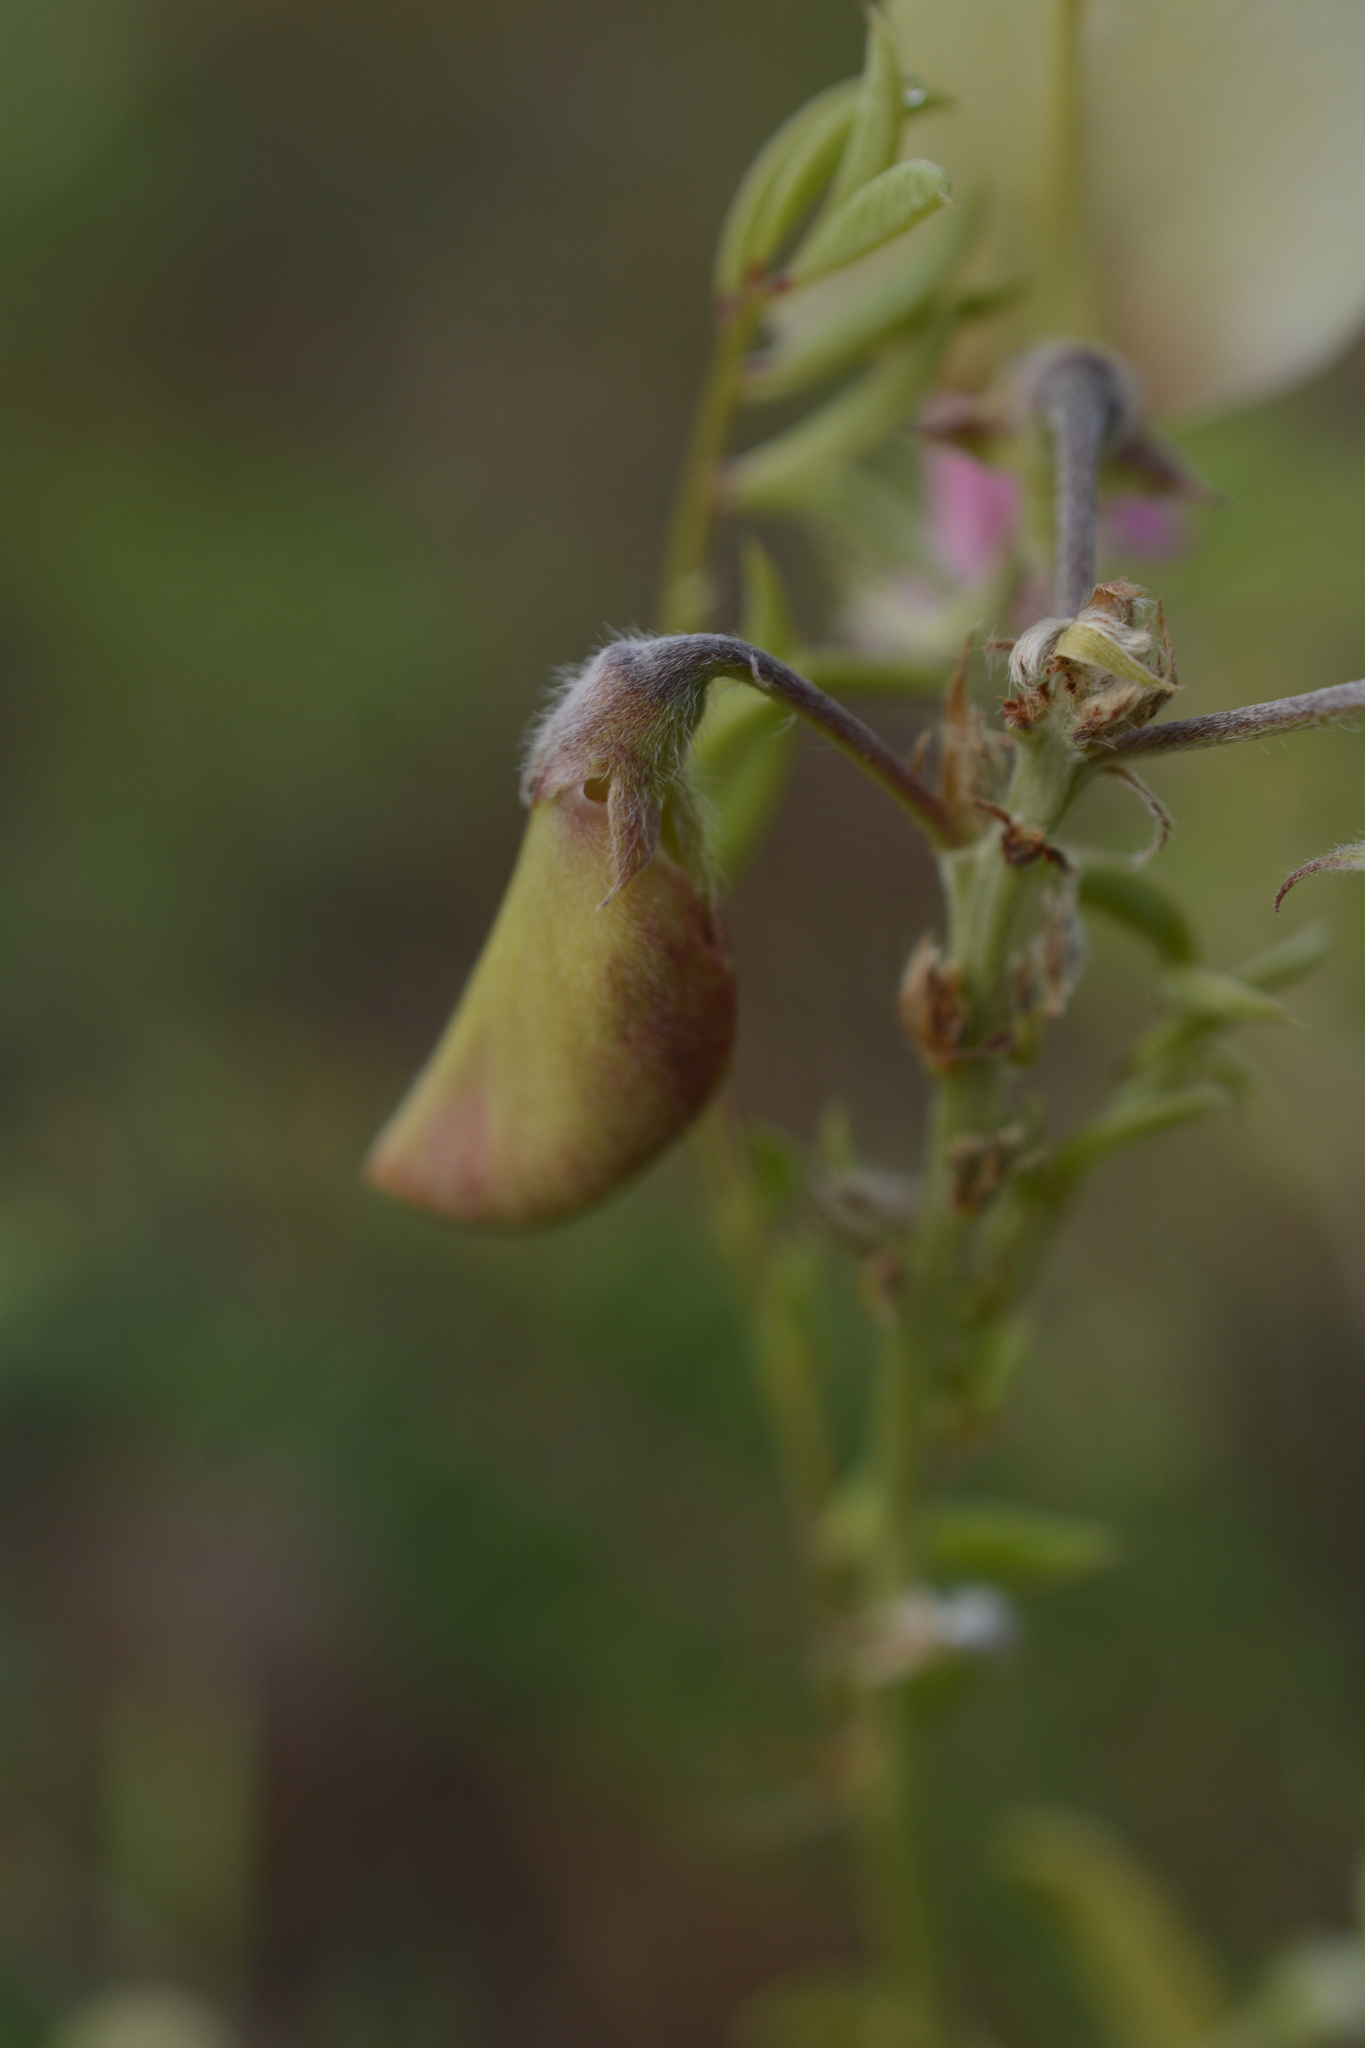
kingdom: Plantae
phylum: Tracheophyta
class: Magnoliopsida
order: Fabales
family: Fabaceae
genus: Tephrosia
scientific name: Tephrosia virginiana
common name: Rabbit-pea
